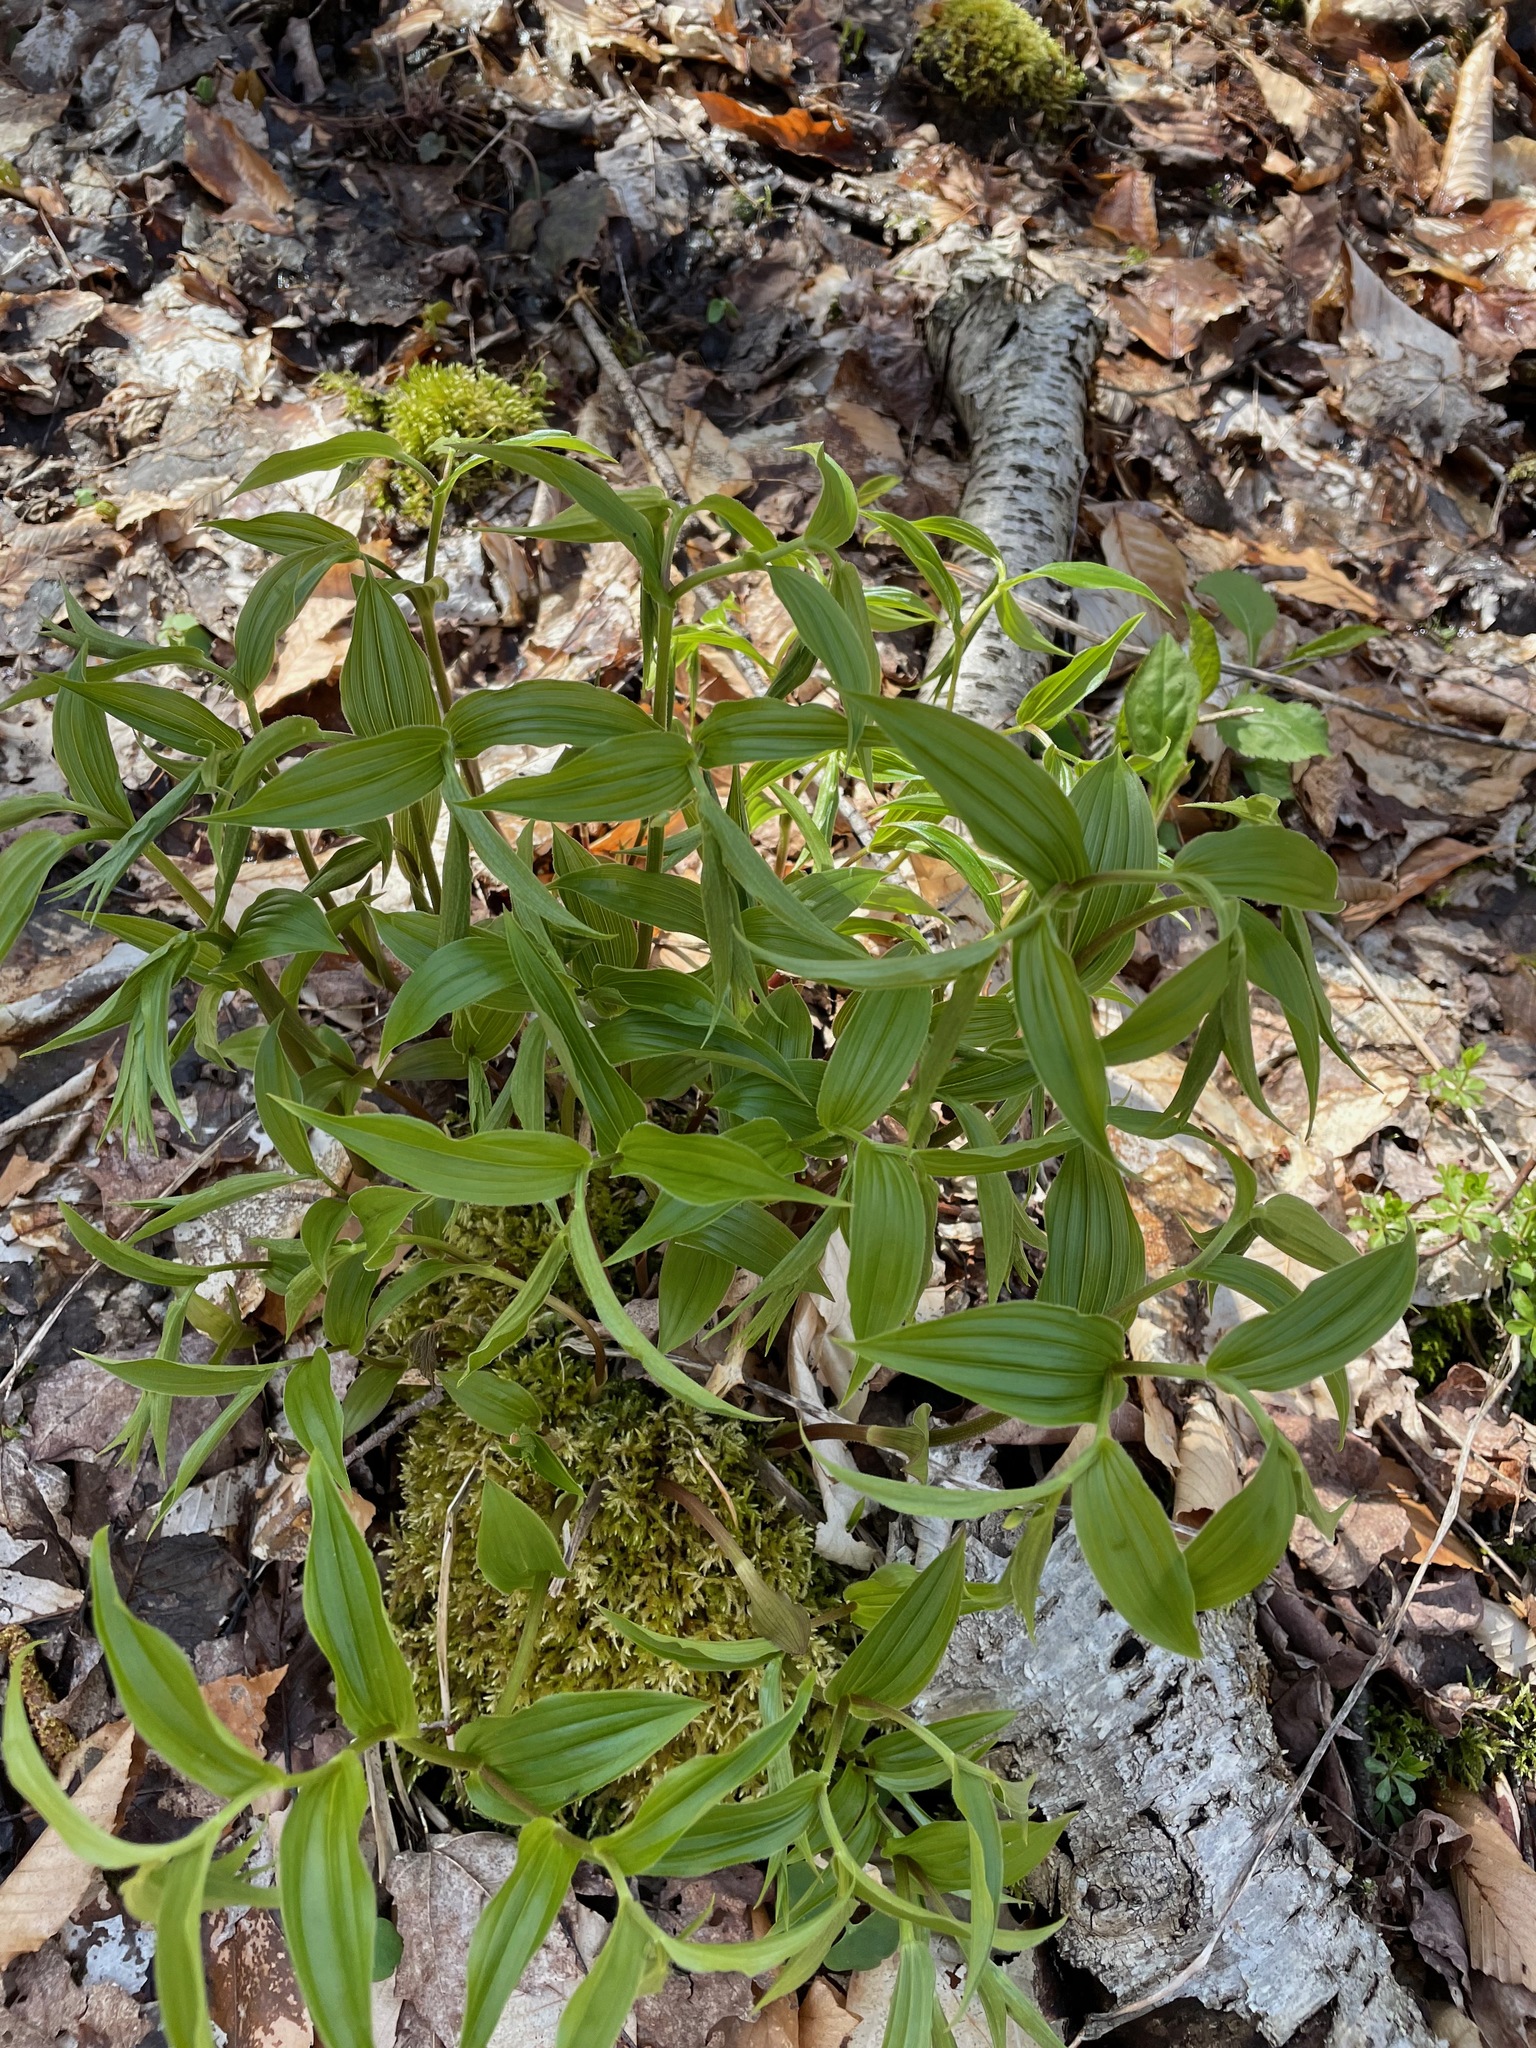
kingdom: Plantae
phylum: Tracheophyta
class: Liliopsida
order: Liliales
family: Liliaceae
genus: Streptopus
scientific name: Streptopus lanceolatus
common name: Rose mandarin
